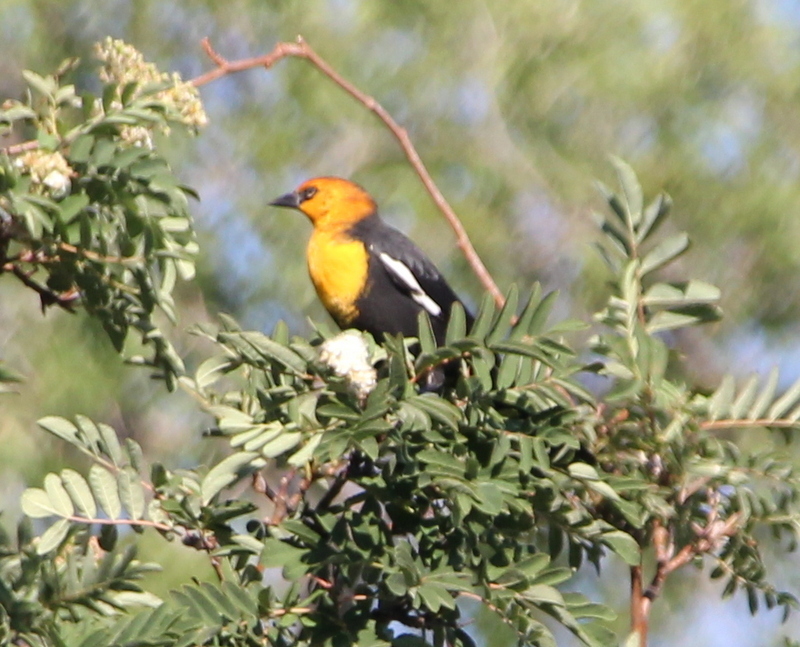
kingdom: Animalia
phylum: Chordata
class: Aves
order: Passeriformes
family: Icteridae
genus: Xanthocephalus
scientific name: Xanthocephalus xanthocephalus
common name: Yellow-headed blackbird
